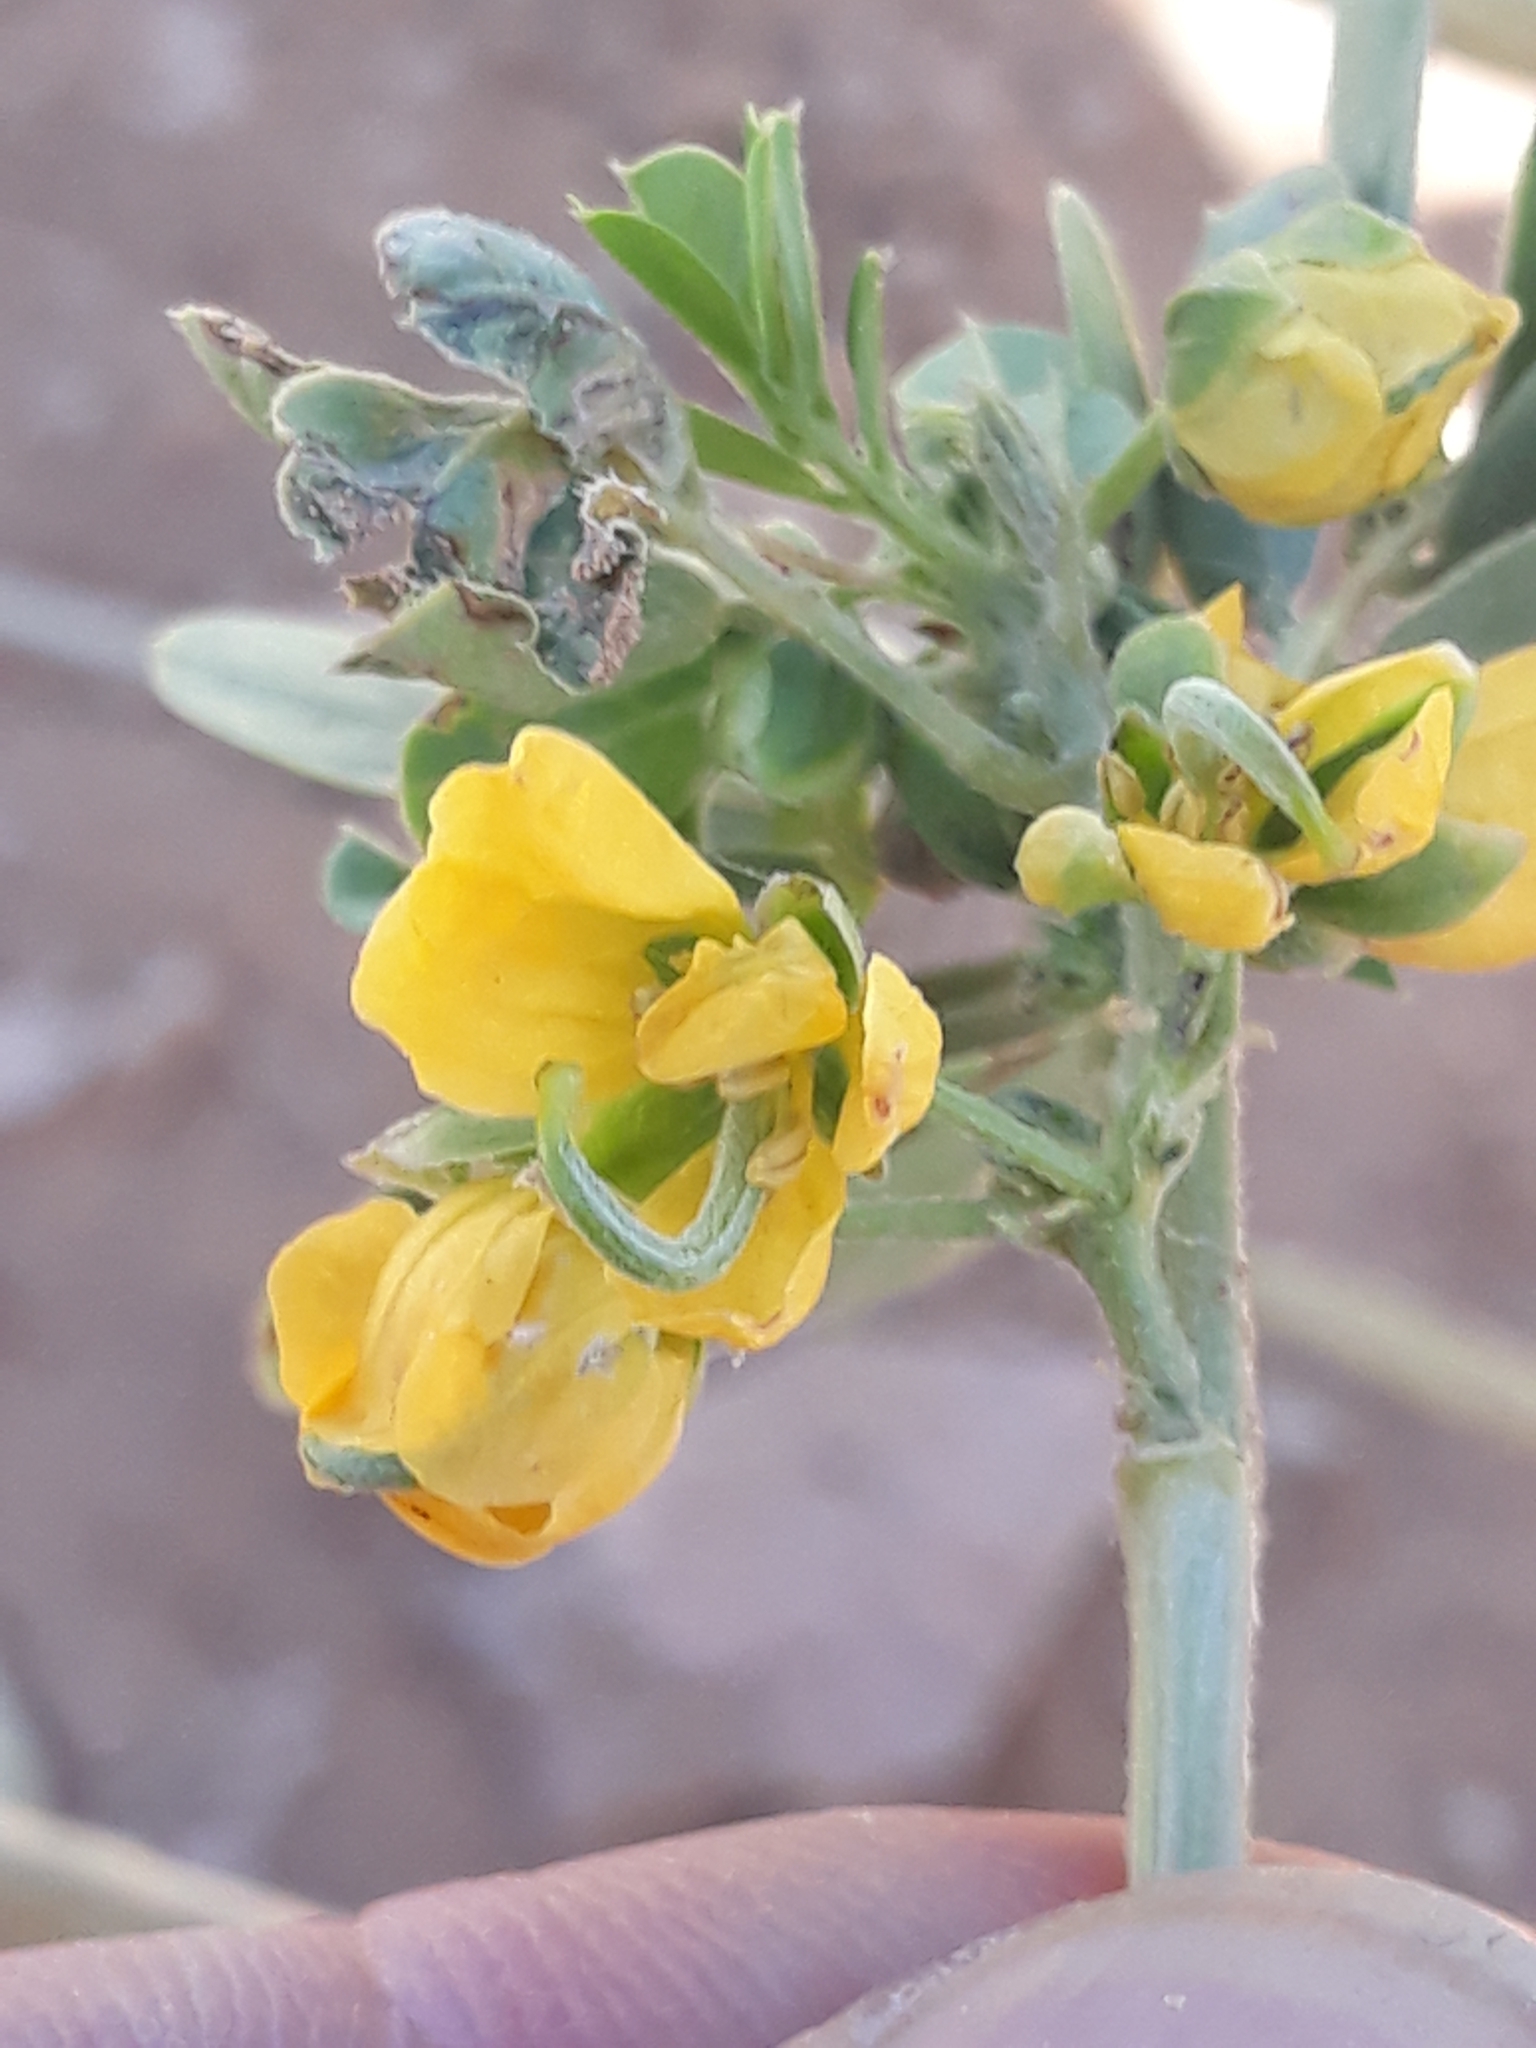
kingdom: Plantae
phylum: Tracheophyta
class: Magnoliopsida
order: Fabales
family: Fabaceae
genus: Senna
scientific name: Senna obtusifolia
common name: Java-bean
